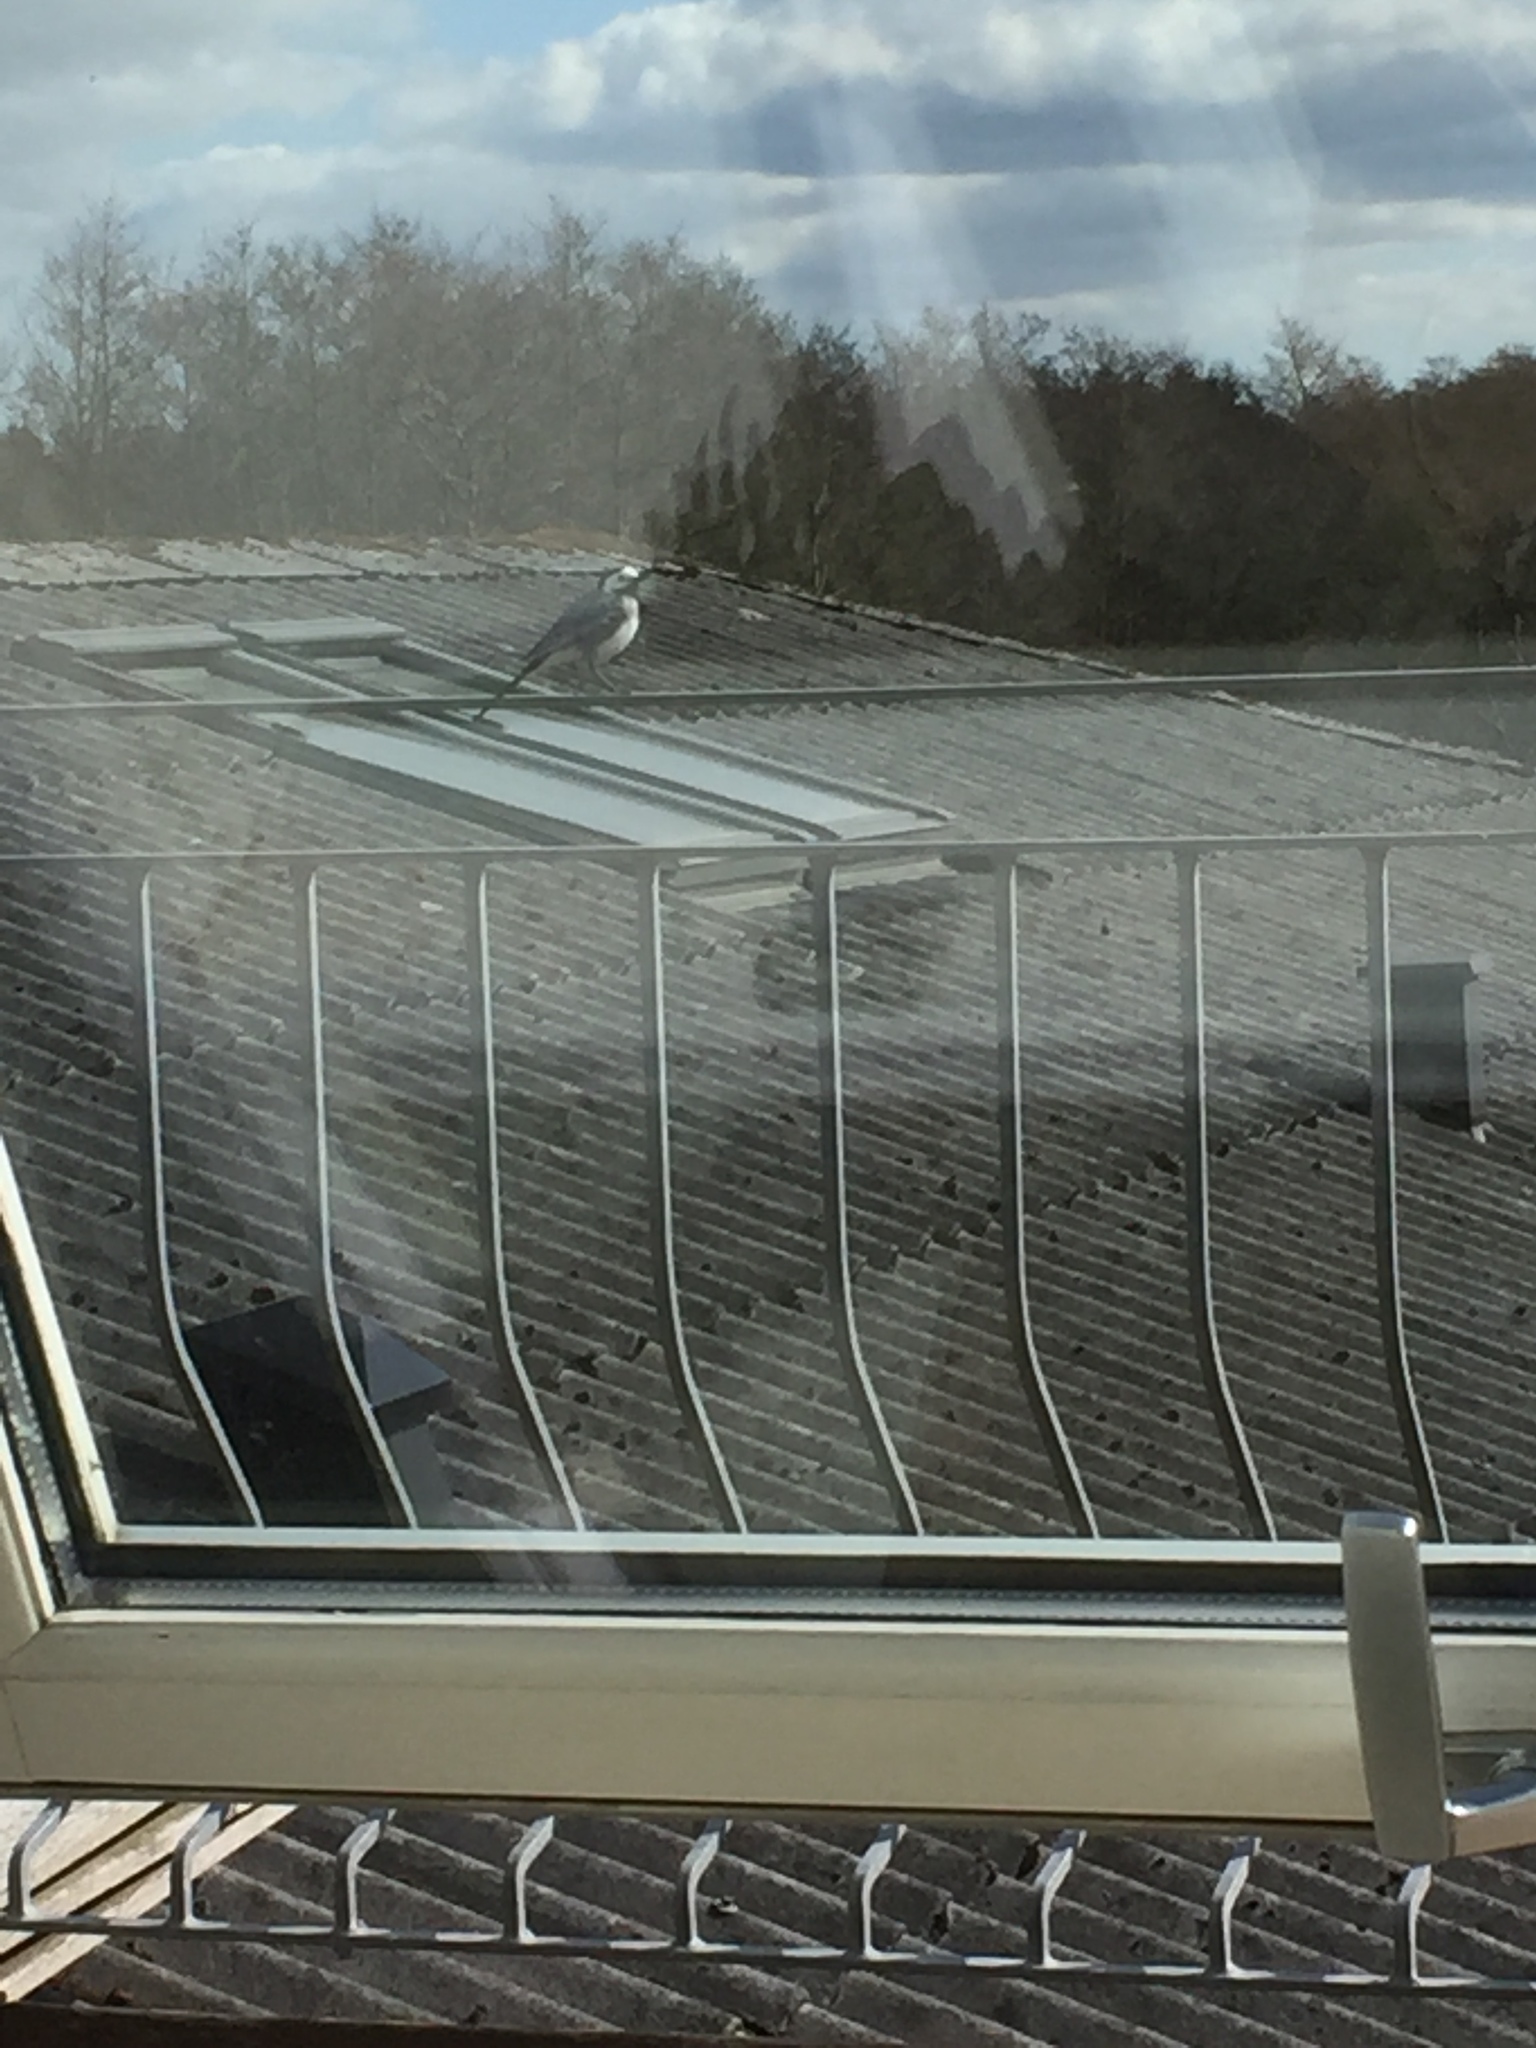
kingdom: Animalia
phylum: Chordata
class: Aves
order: Passeriformes
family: Motacillidae
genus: Motacilla
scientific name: Motacilla alba
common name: White wagtail
